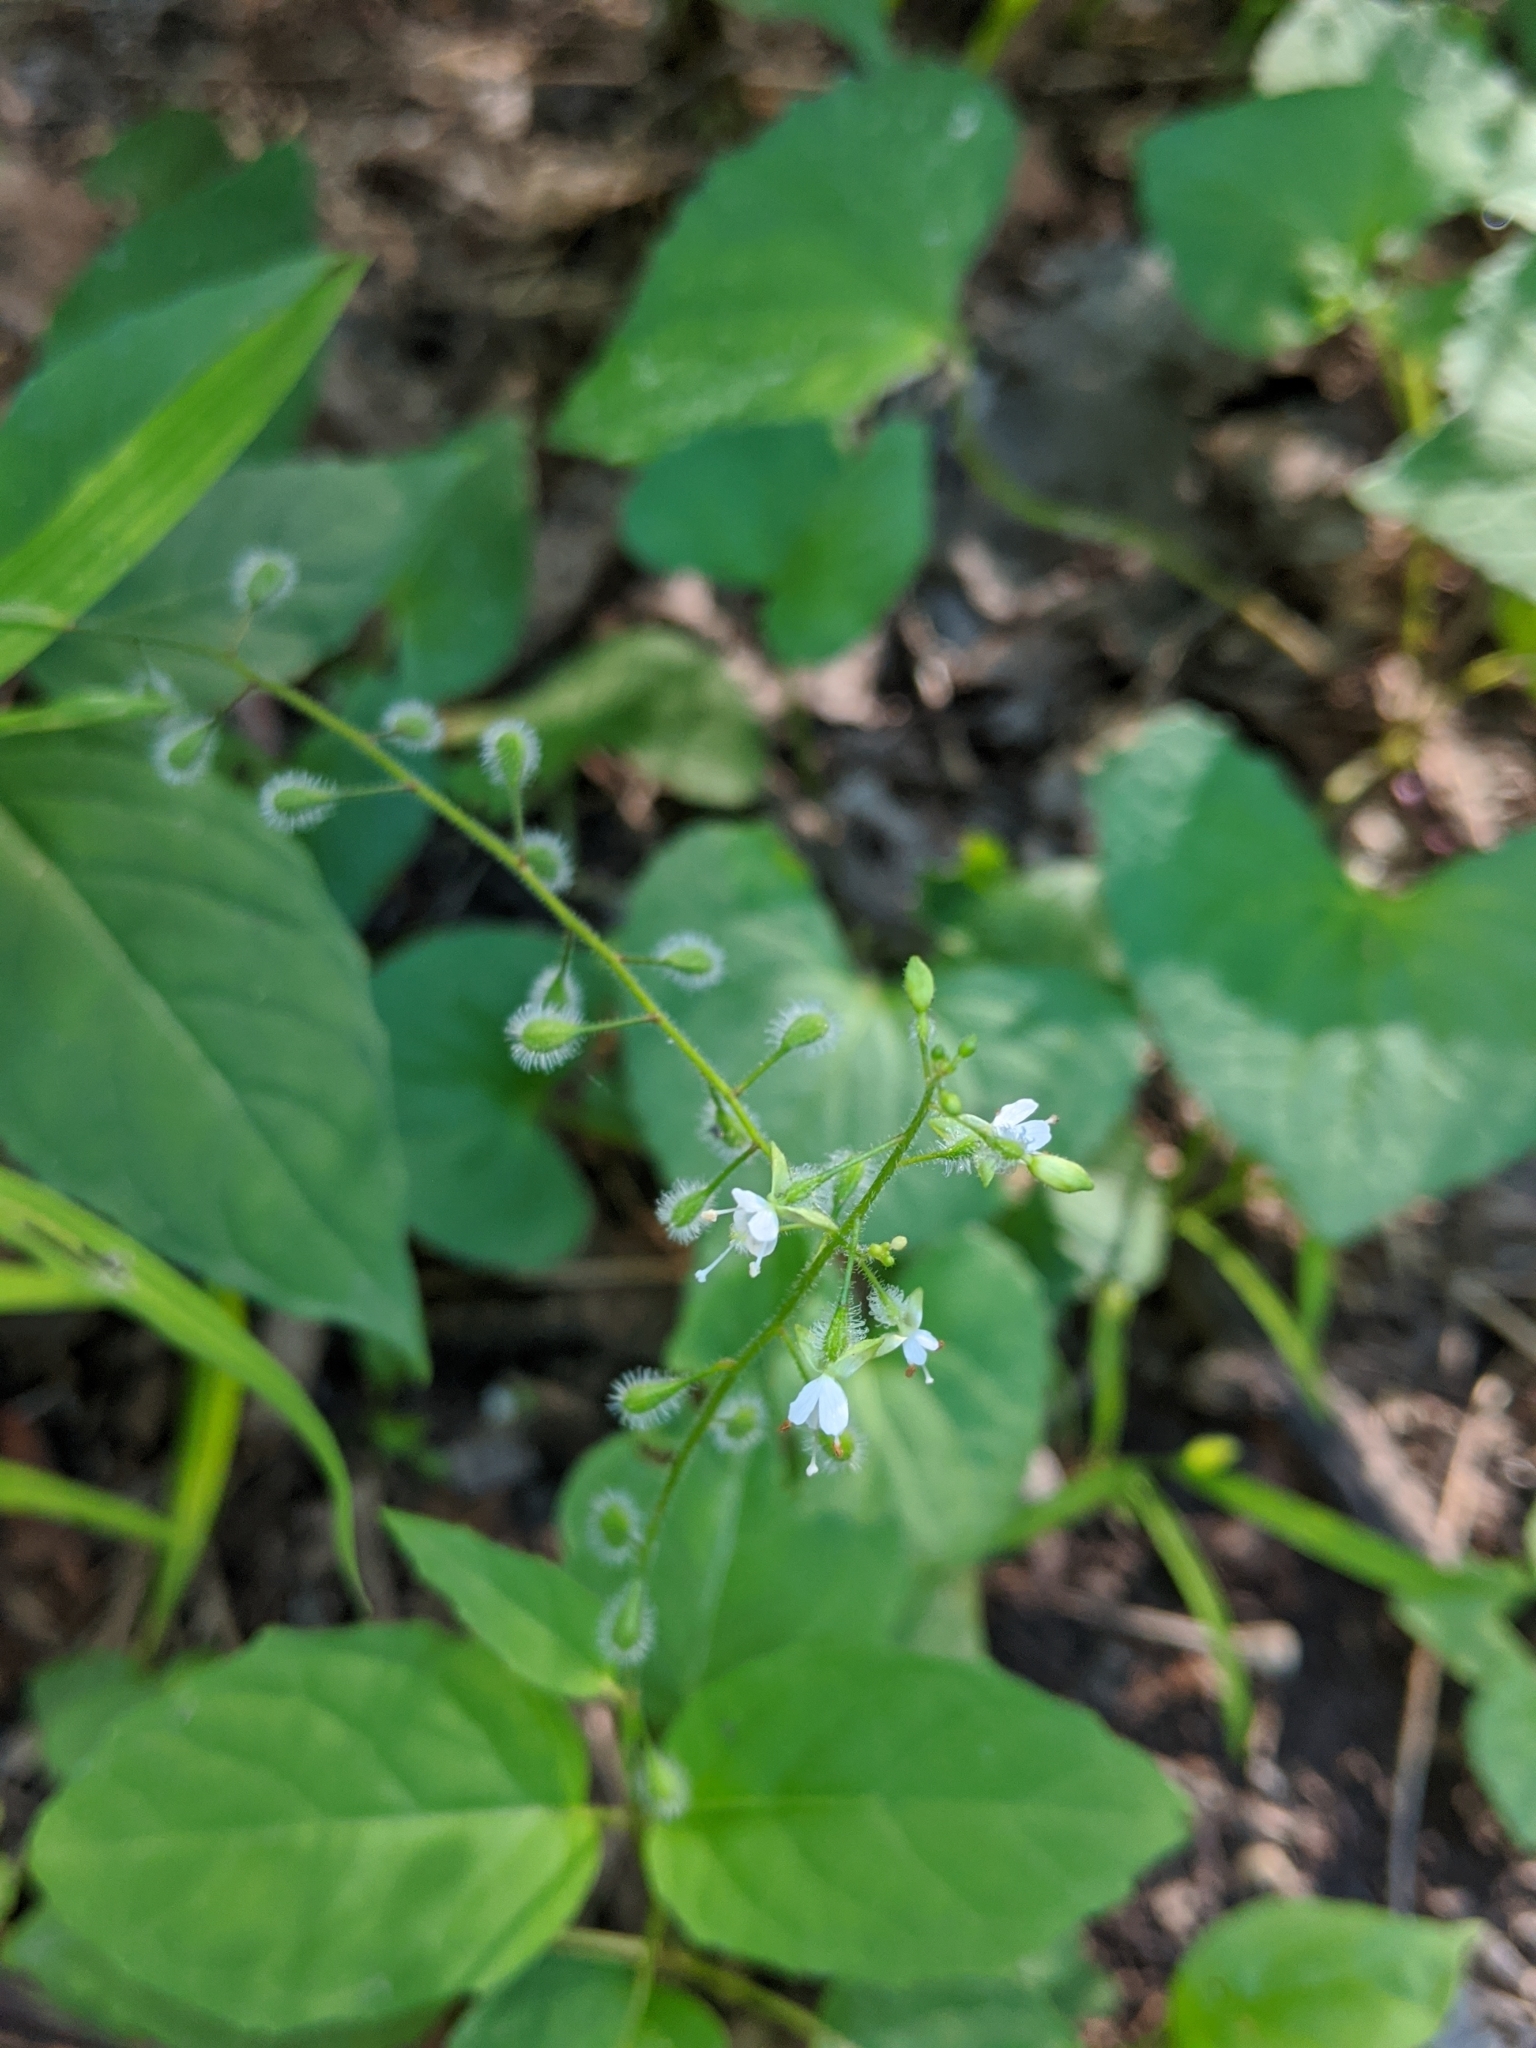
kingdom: Plantae
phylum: Tracheophyta
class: Magnoliopsida
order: Myrtales
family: Onagraceae
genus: Circaea
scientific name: Circaea canadensis
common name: Broad-leaved enchanter's nightshade
